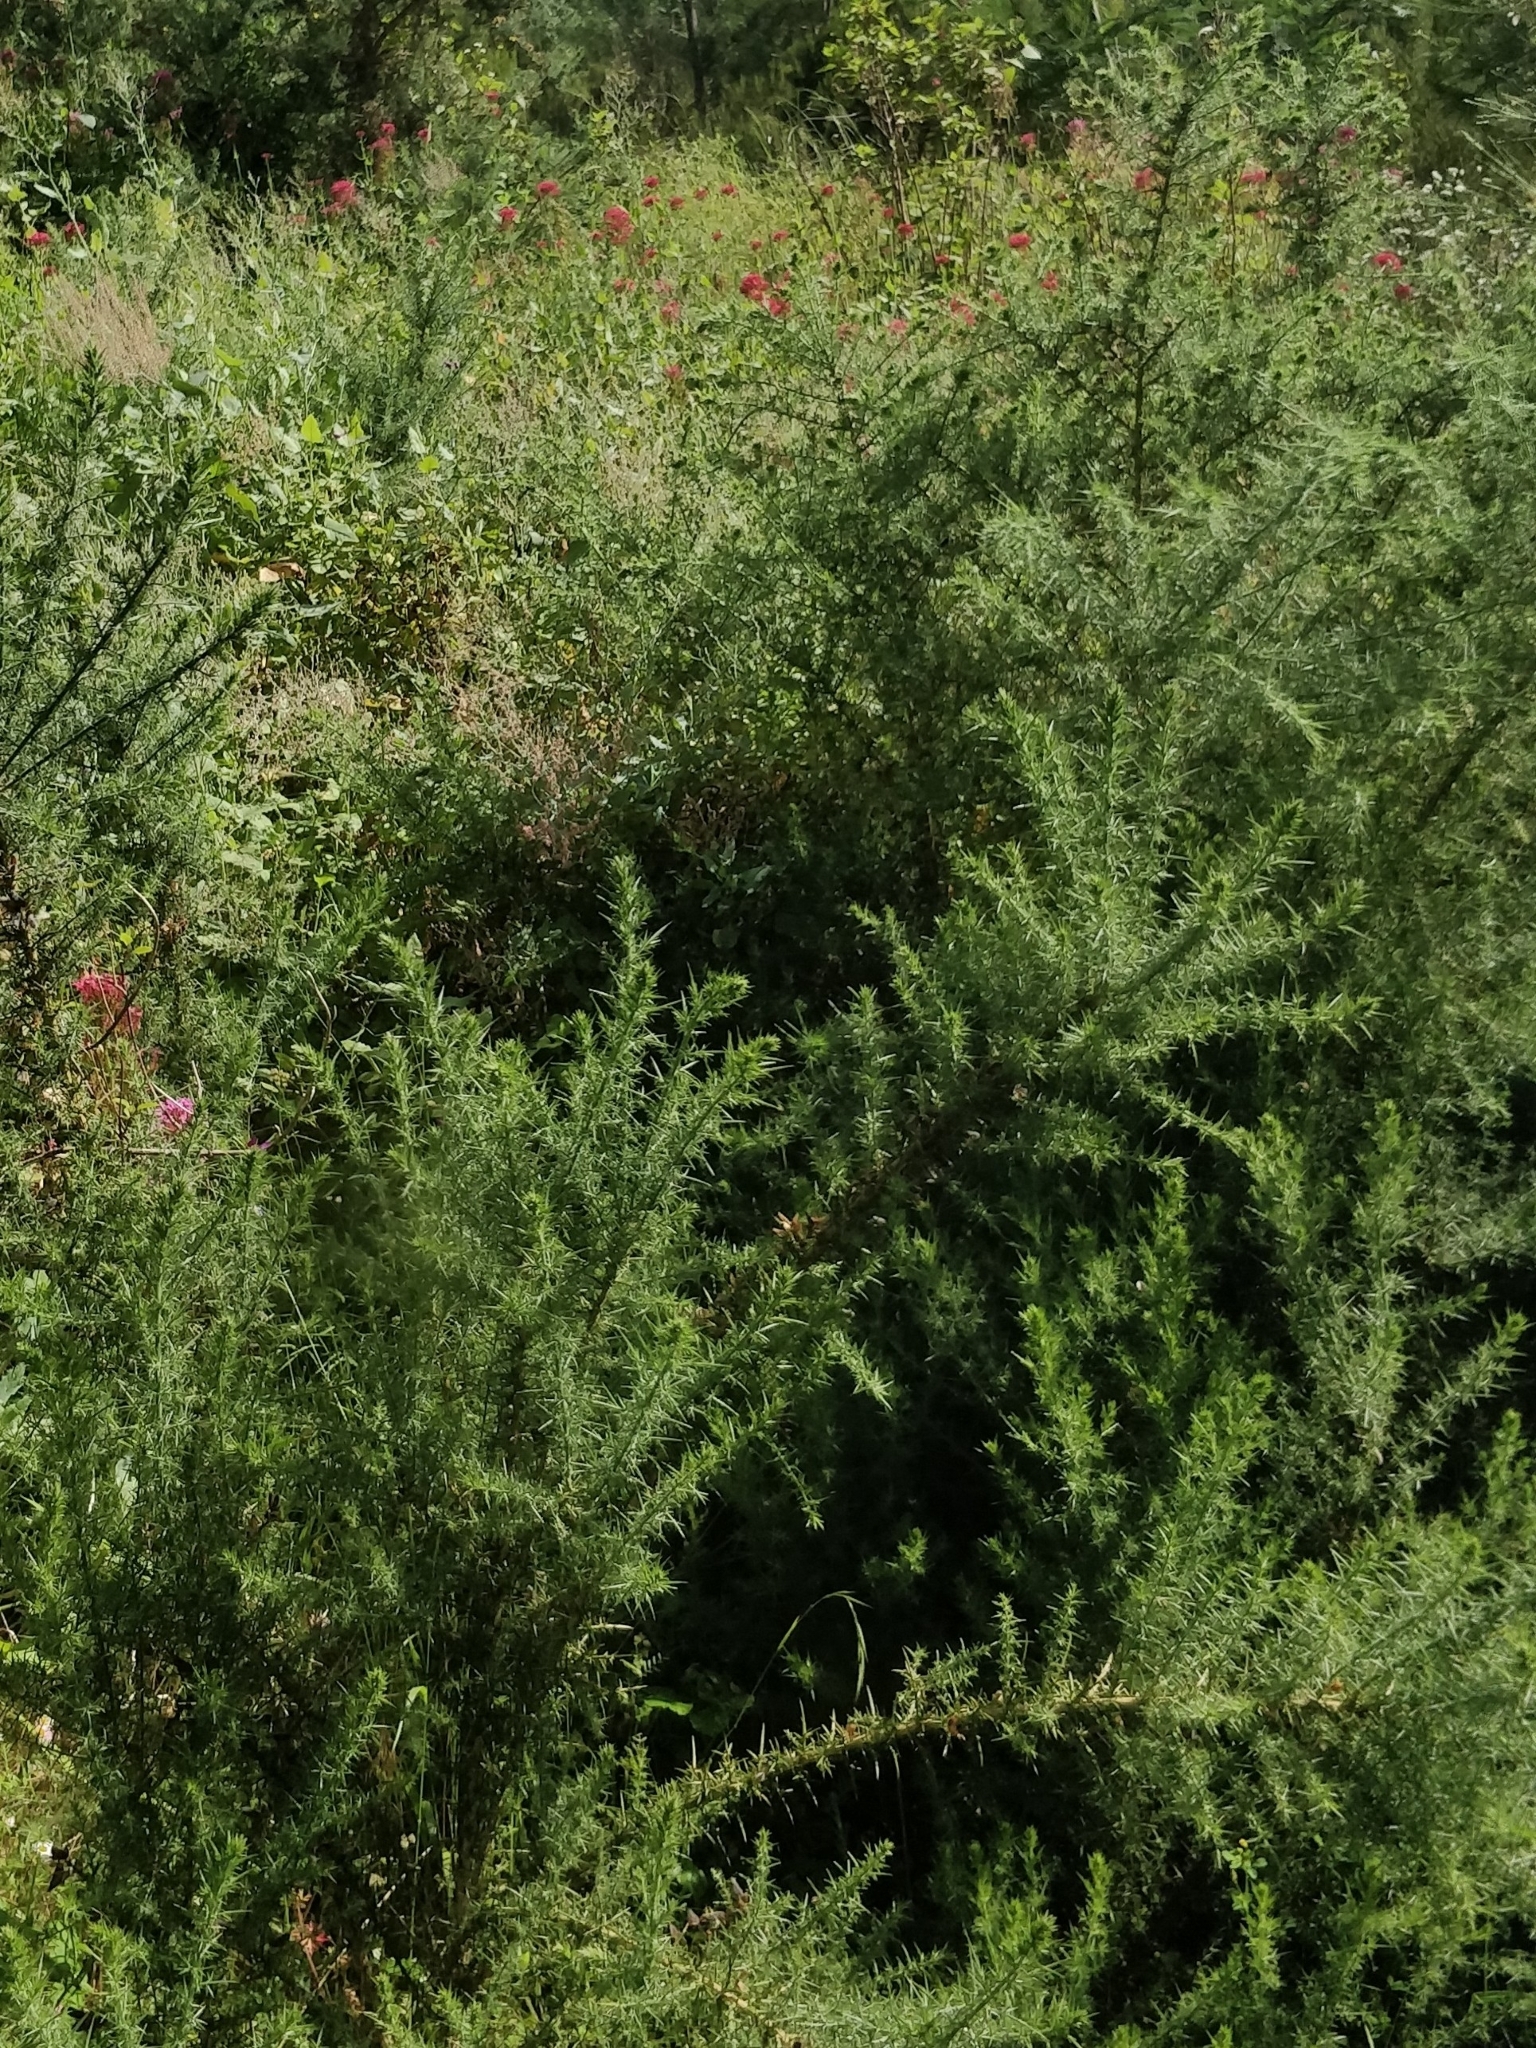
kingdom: Plantae
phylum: Tracheophyta
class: Magnoliopsida
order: Fabales
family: Fabaceae
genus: Ulex
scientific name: Ulex europaeus
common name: Common gorse
